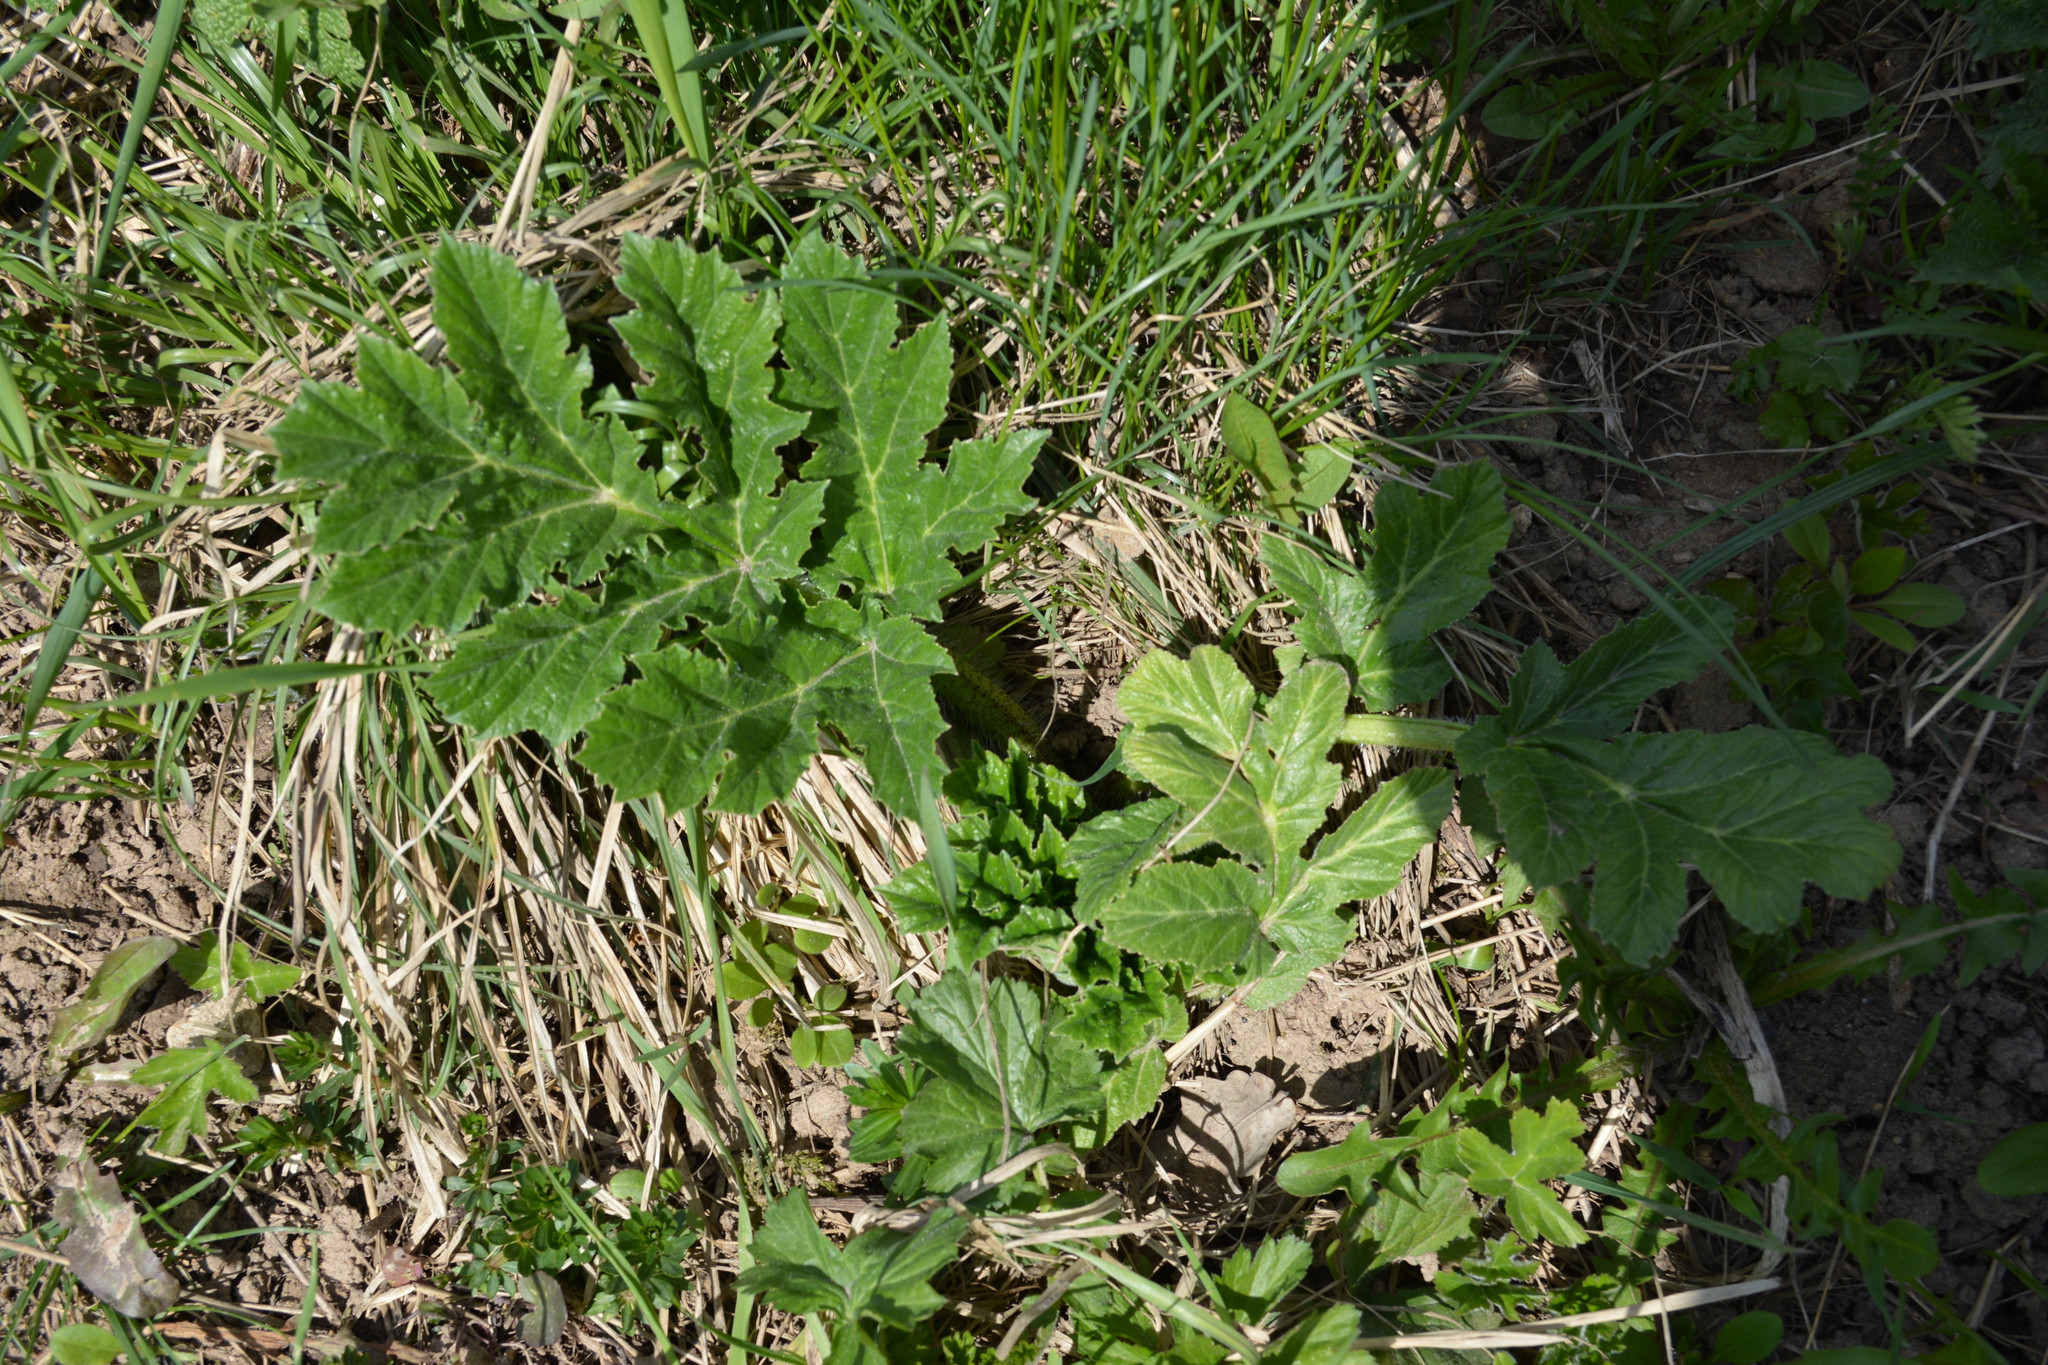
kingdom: Plantae
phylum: Tracheophyta
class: Magnoliopsida
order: Apiales
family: Apiaceae
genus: Heracleum
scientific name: Heracleum sosnowskyi
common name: Sosnowsky's hogweed
